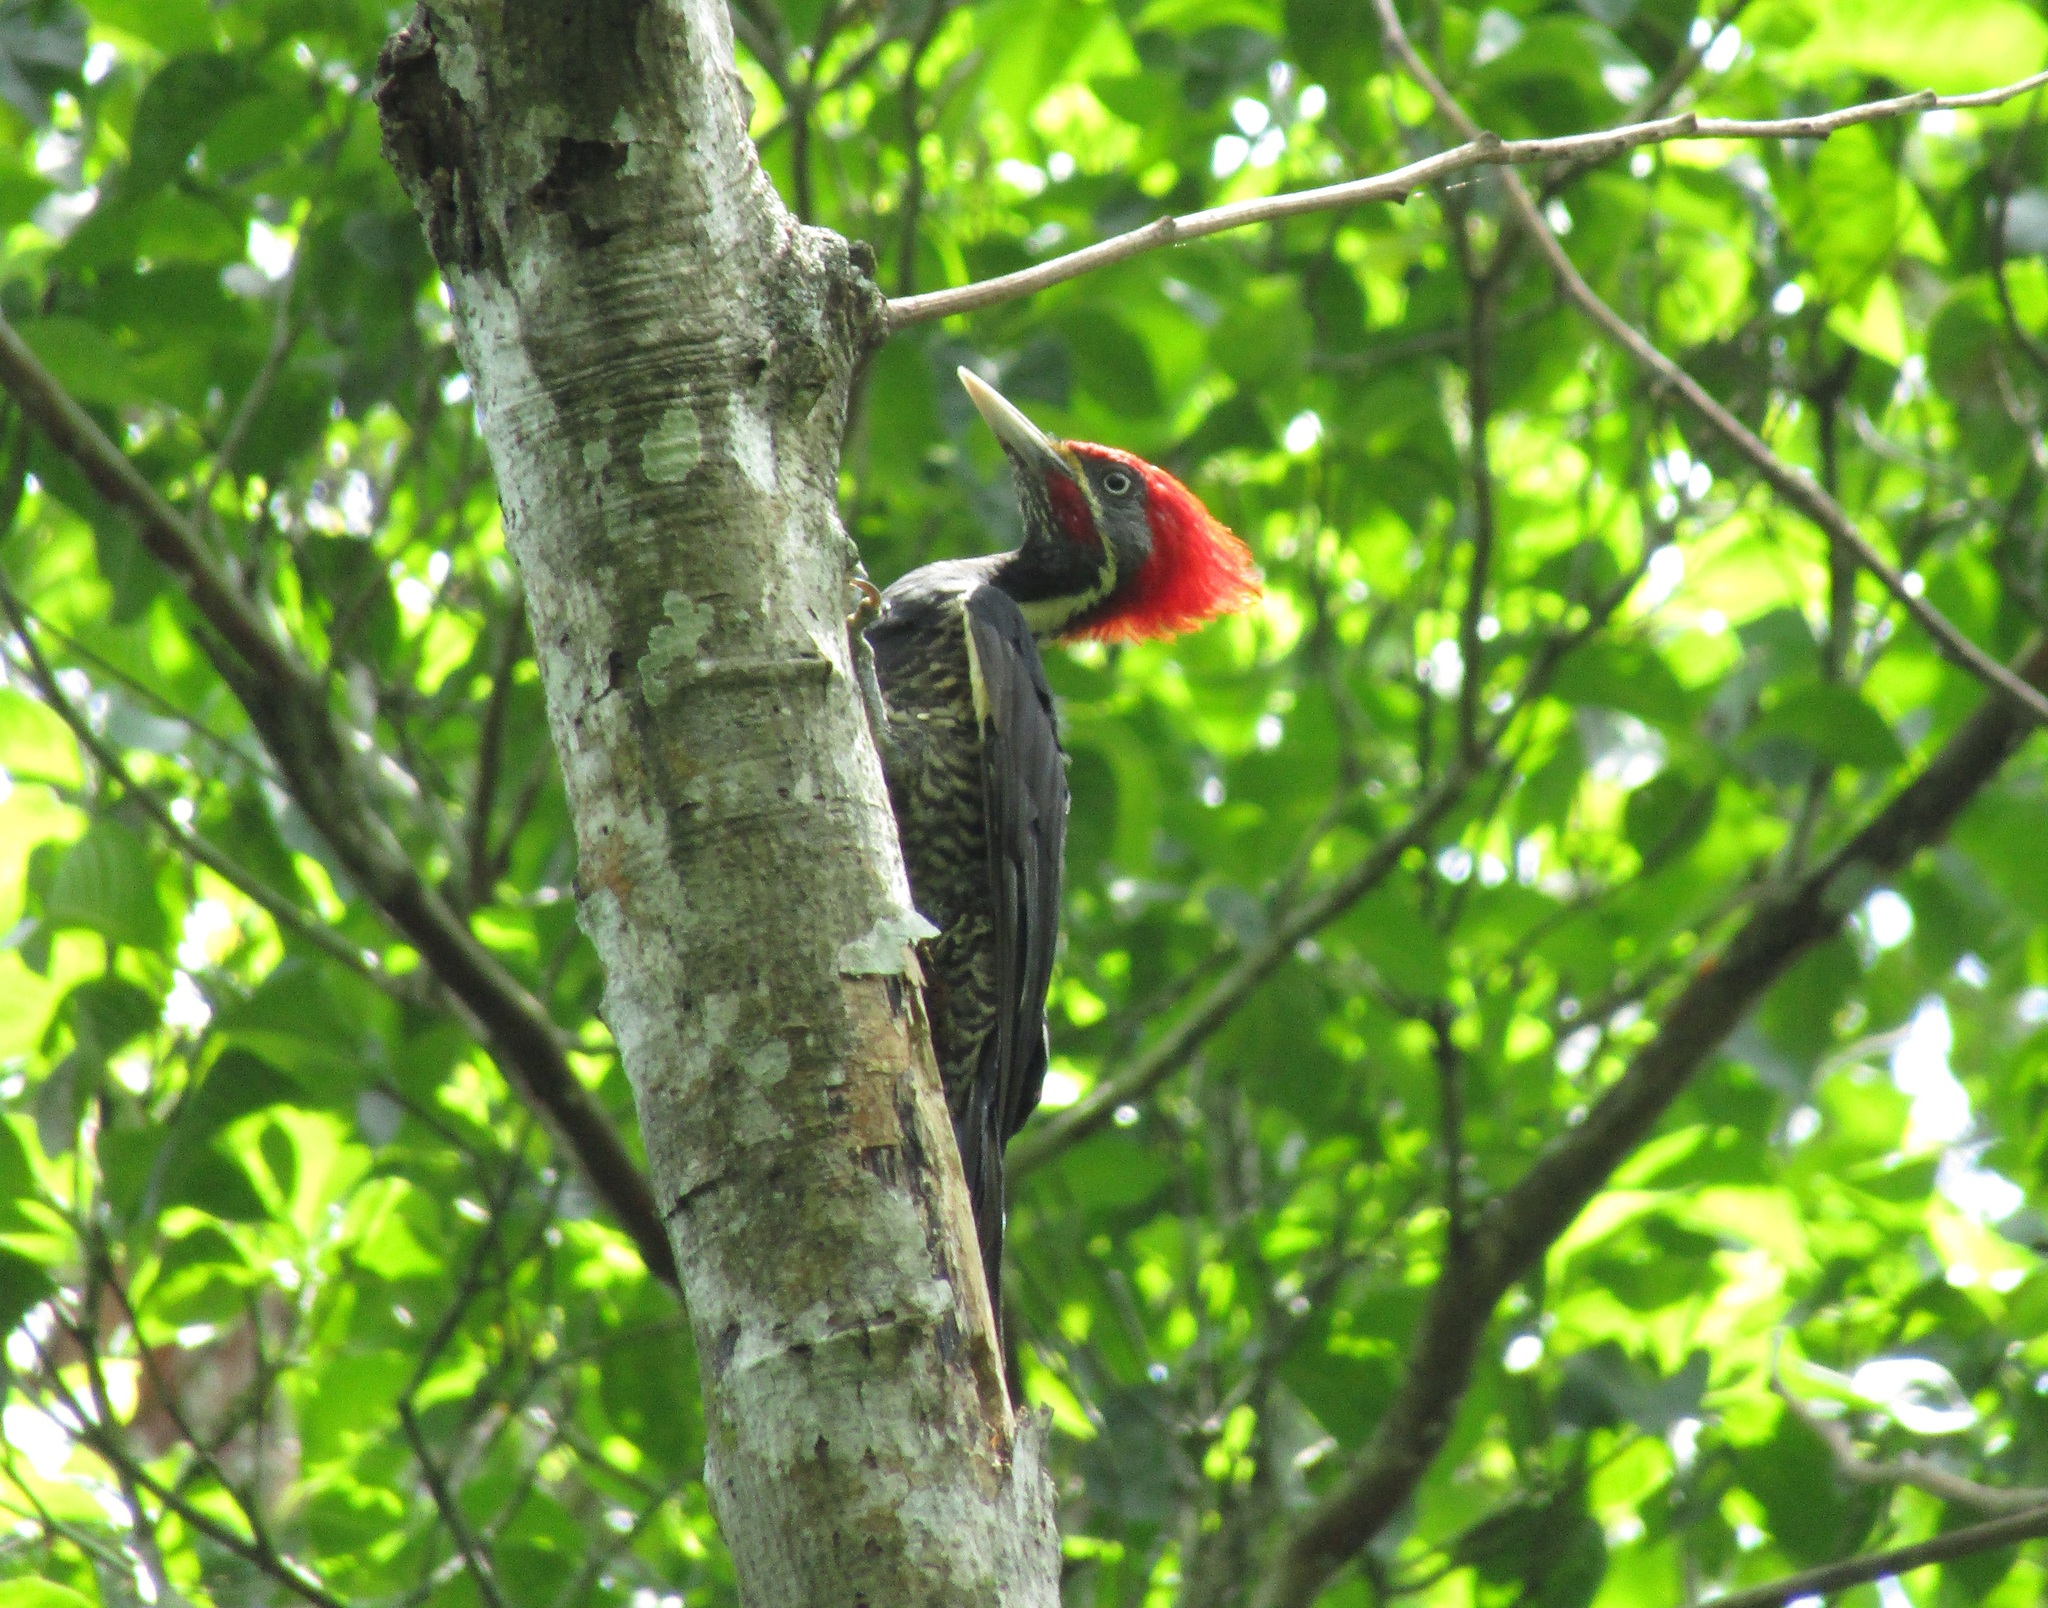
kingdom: Animalia
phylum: Chordata
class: Aves
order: Piciformes
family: Picidae
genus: Dryocopus
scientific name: Dryocopus lineatus
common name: Lineated woodpecker
